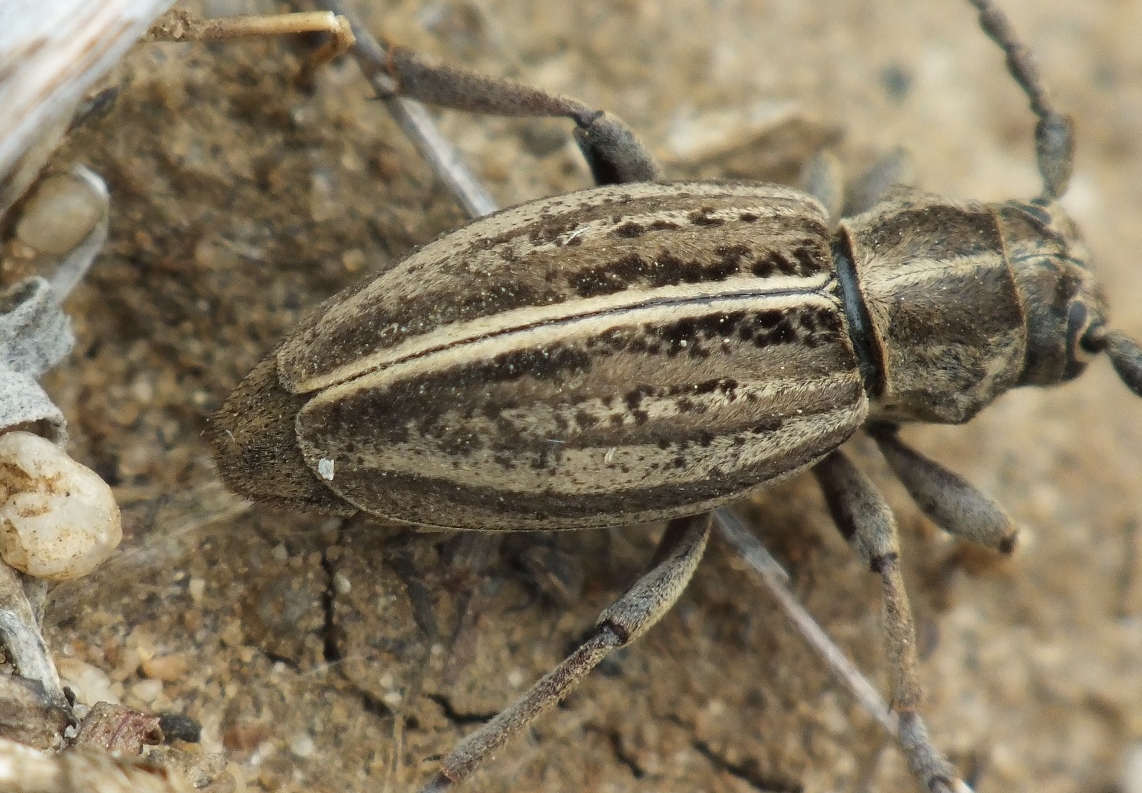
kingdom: Animalia
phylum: Arthropoda
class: Insecta
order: Coleoptera
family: Cerambycidae
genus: Dorcadion
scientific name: Dorcadion sareptanum
